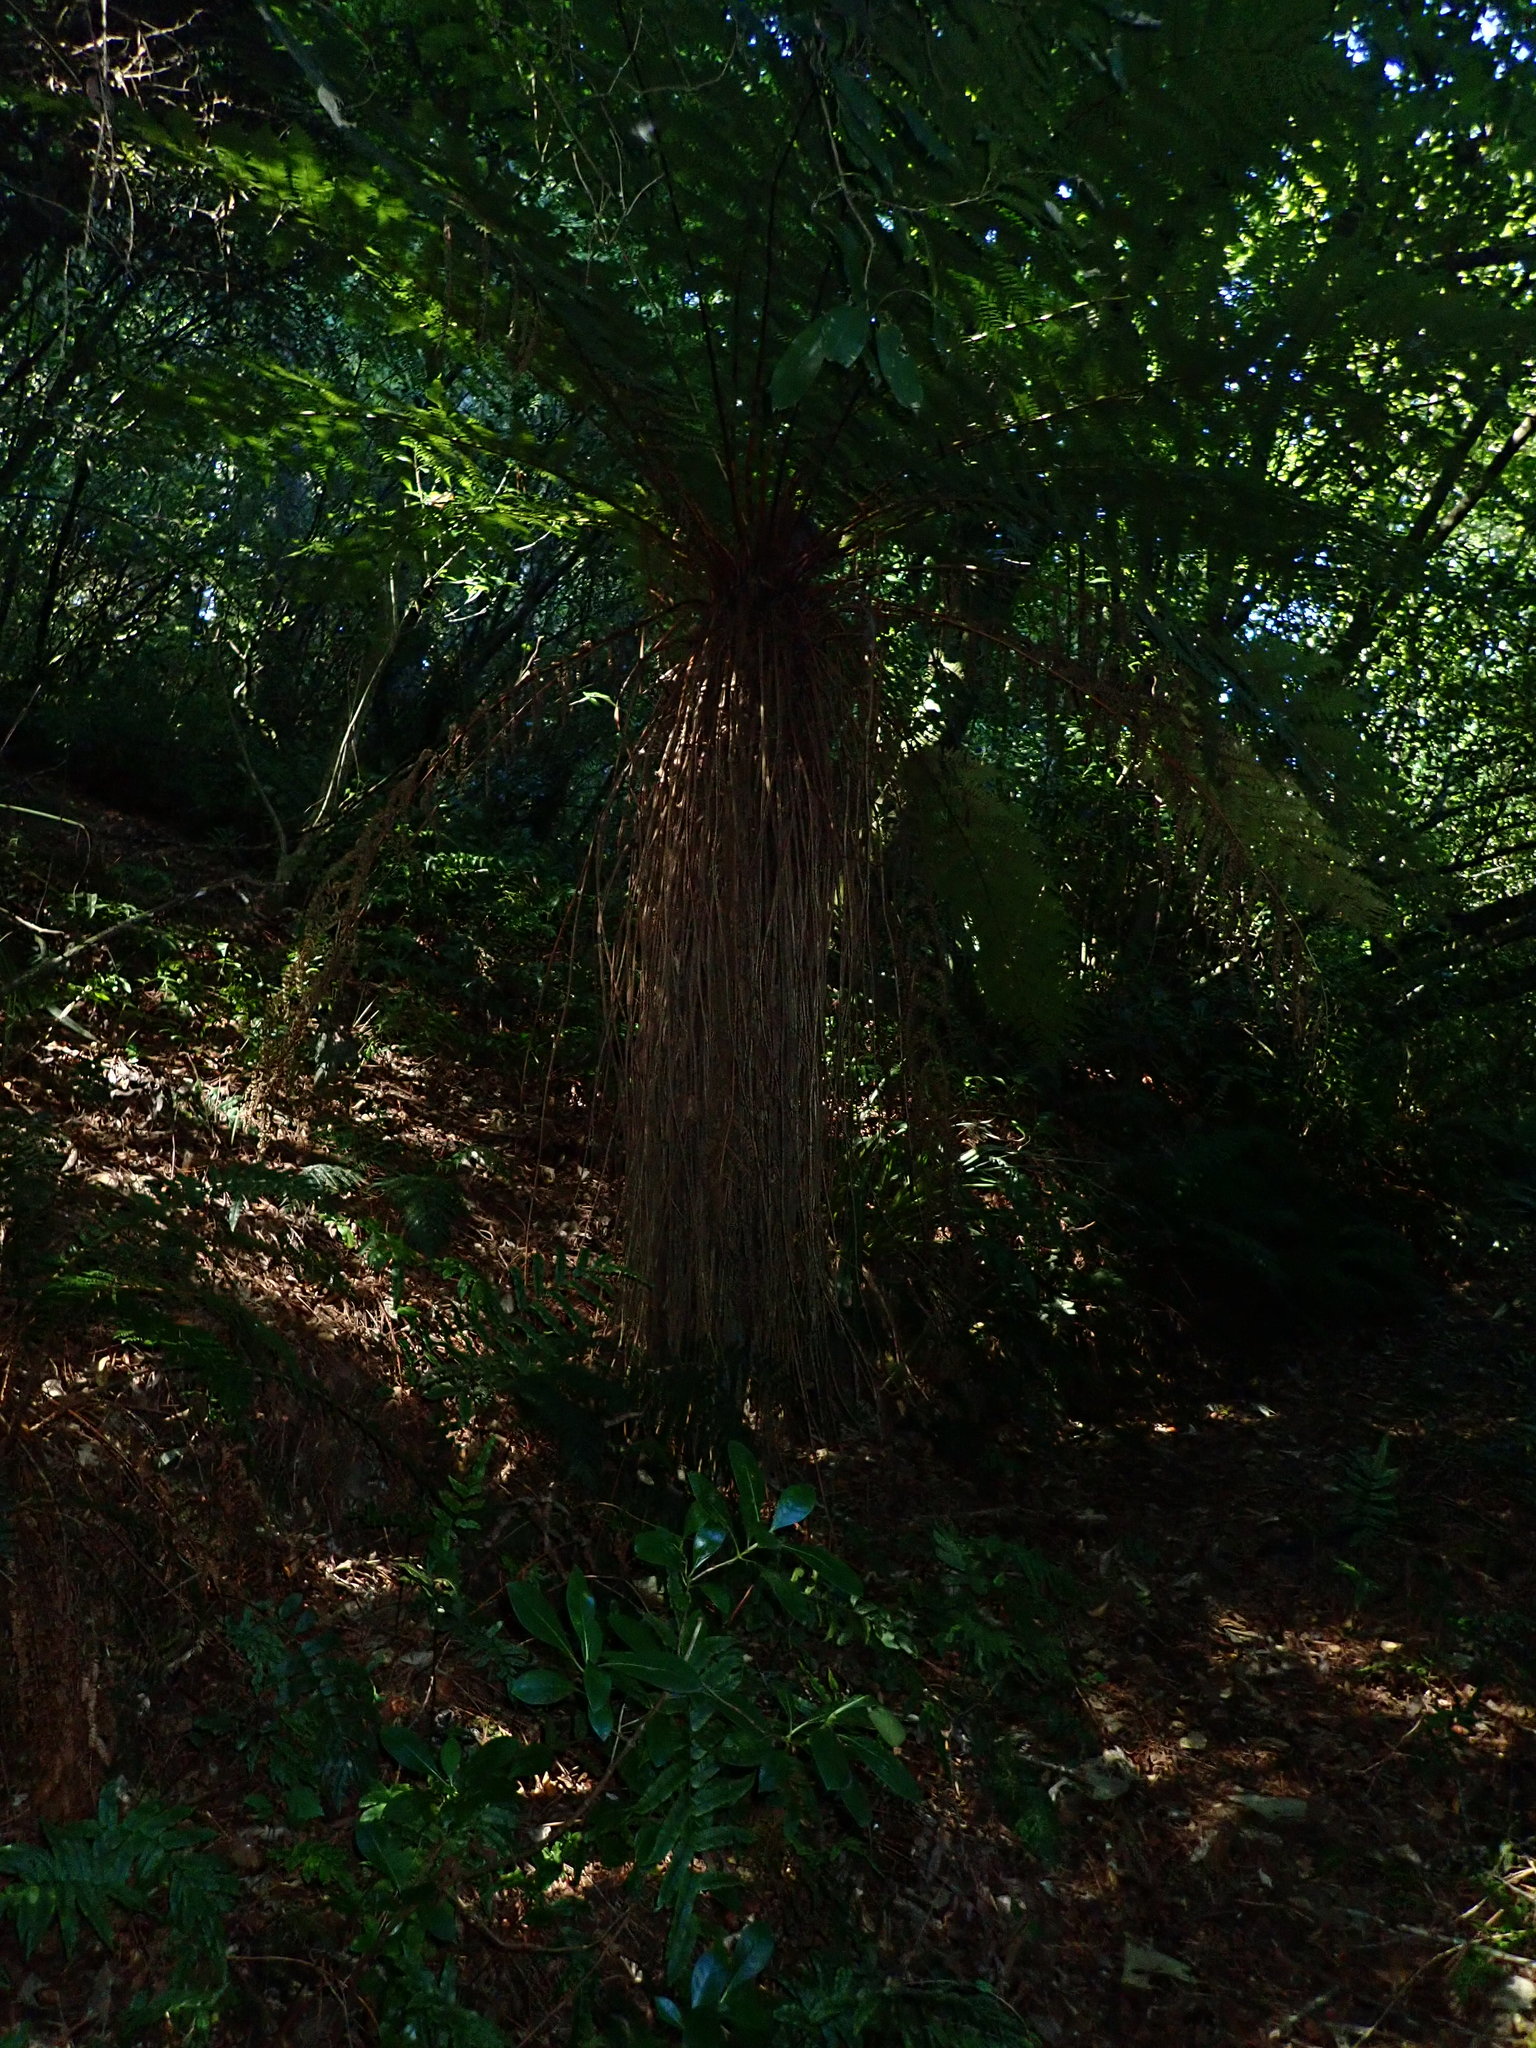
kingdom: Plantae
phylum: Tracheophyta
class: Polypodiopsida
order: Cyatheales
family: Cyatheaceae
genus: Alsophila
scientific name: Alsophila smithii
